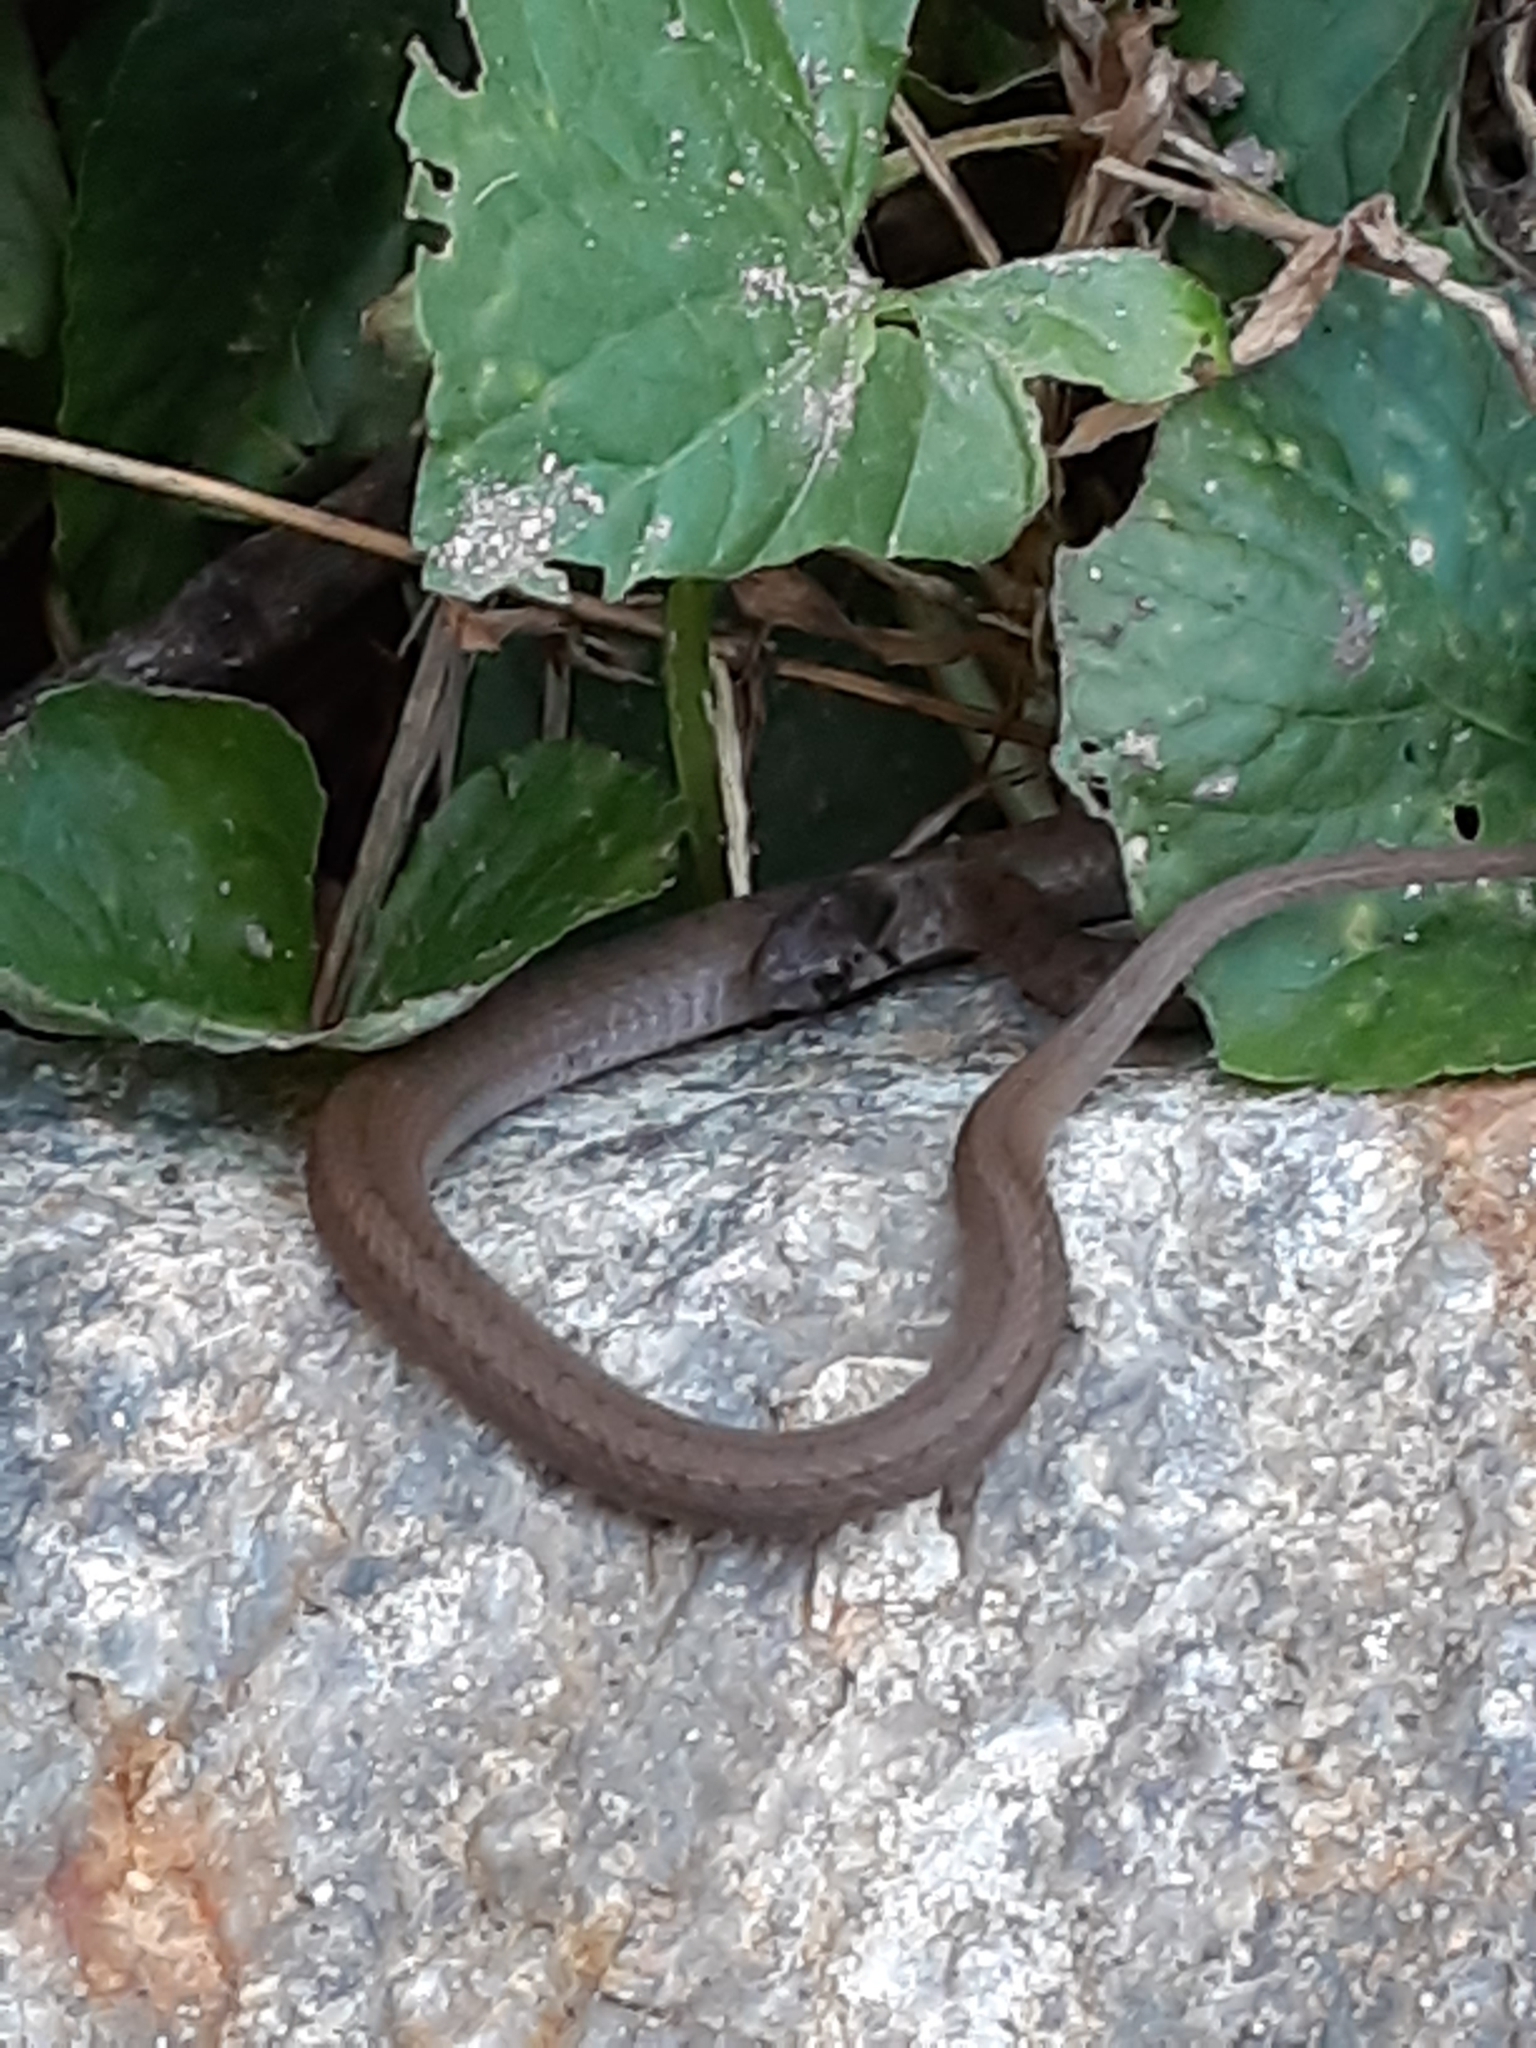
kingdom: Animalia
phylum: Chordata
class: Squamata
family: Colubridae
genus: Storeria
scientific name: Storeria dekayi
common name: (dekay’s) brown snake
